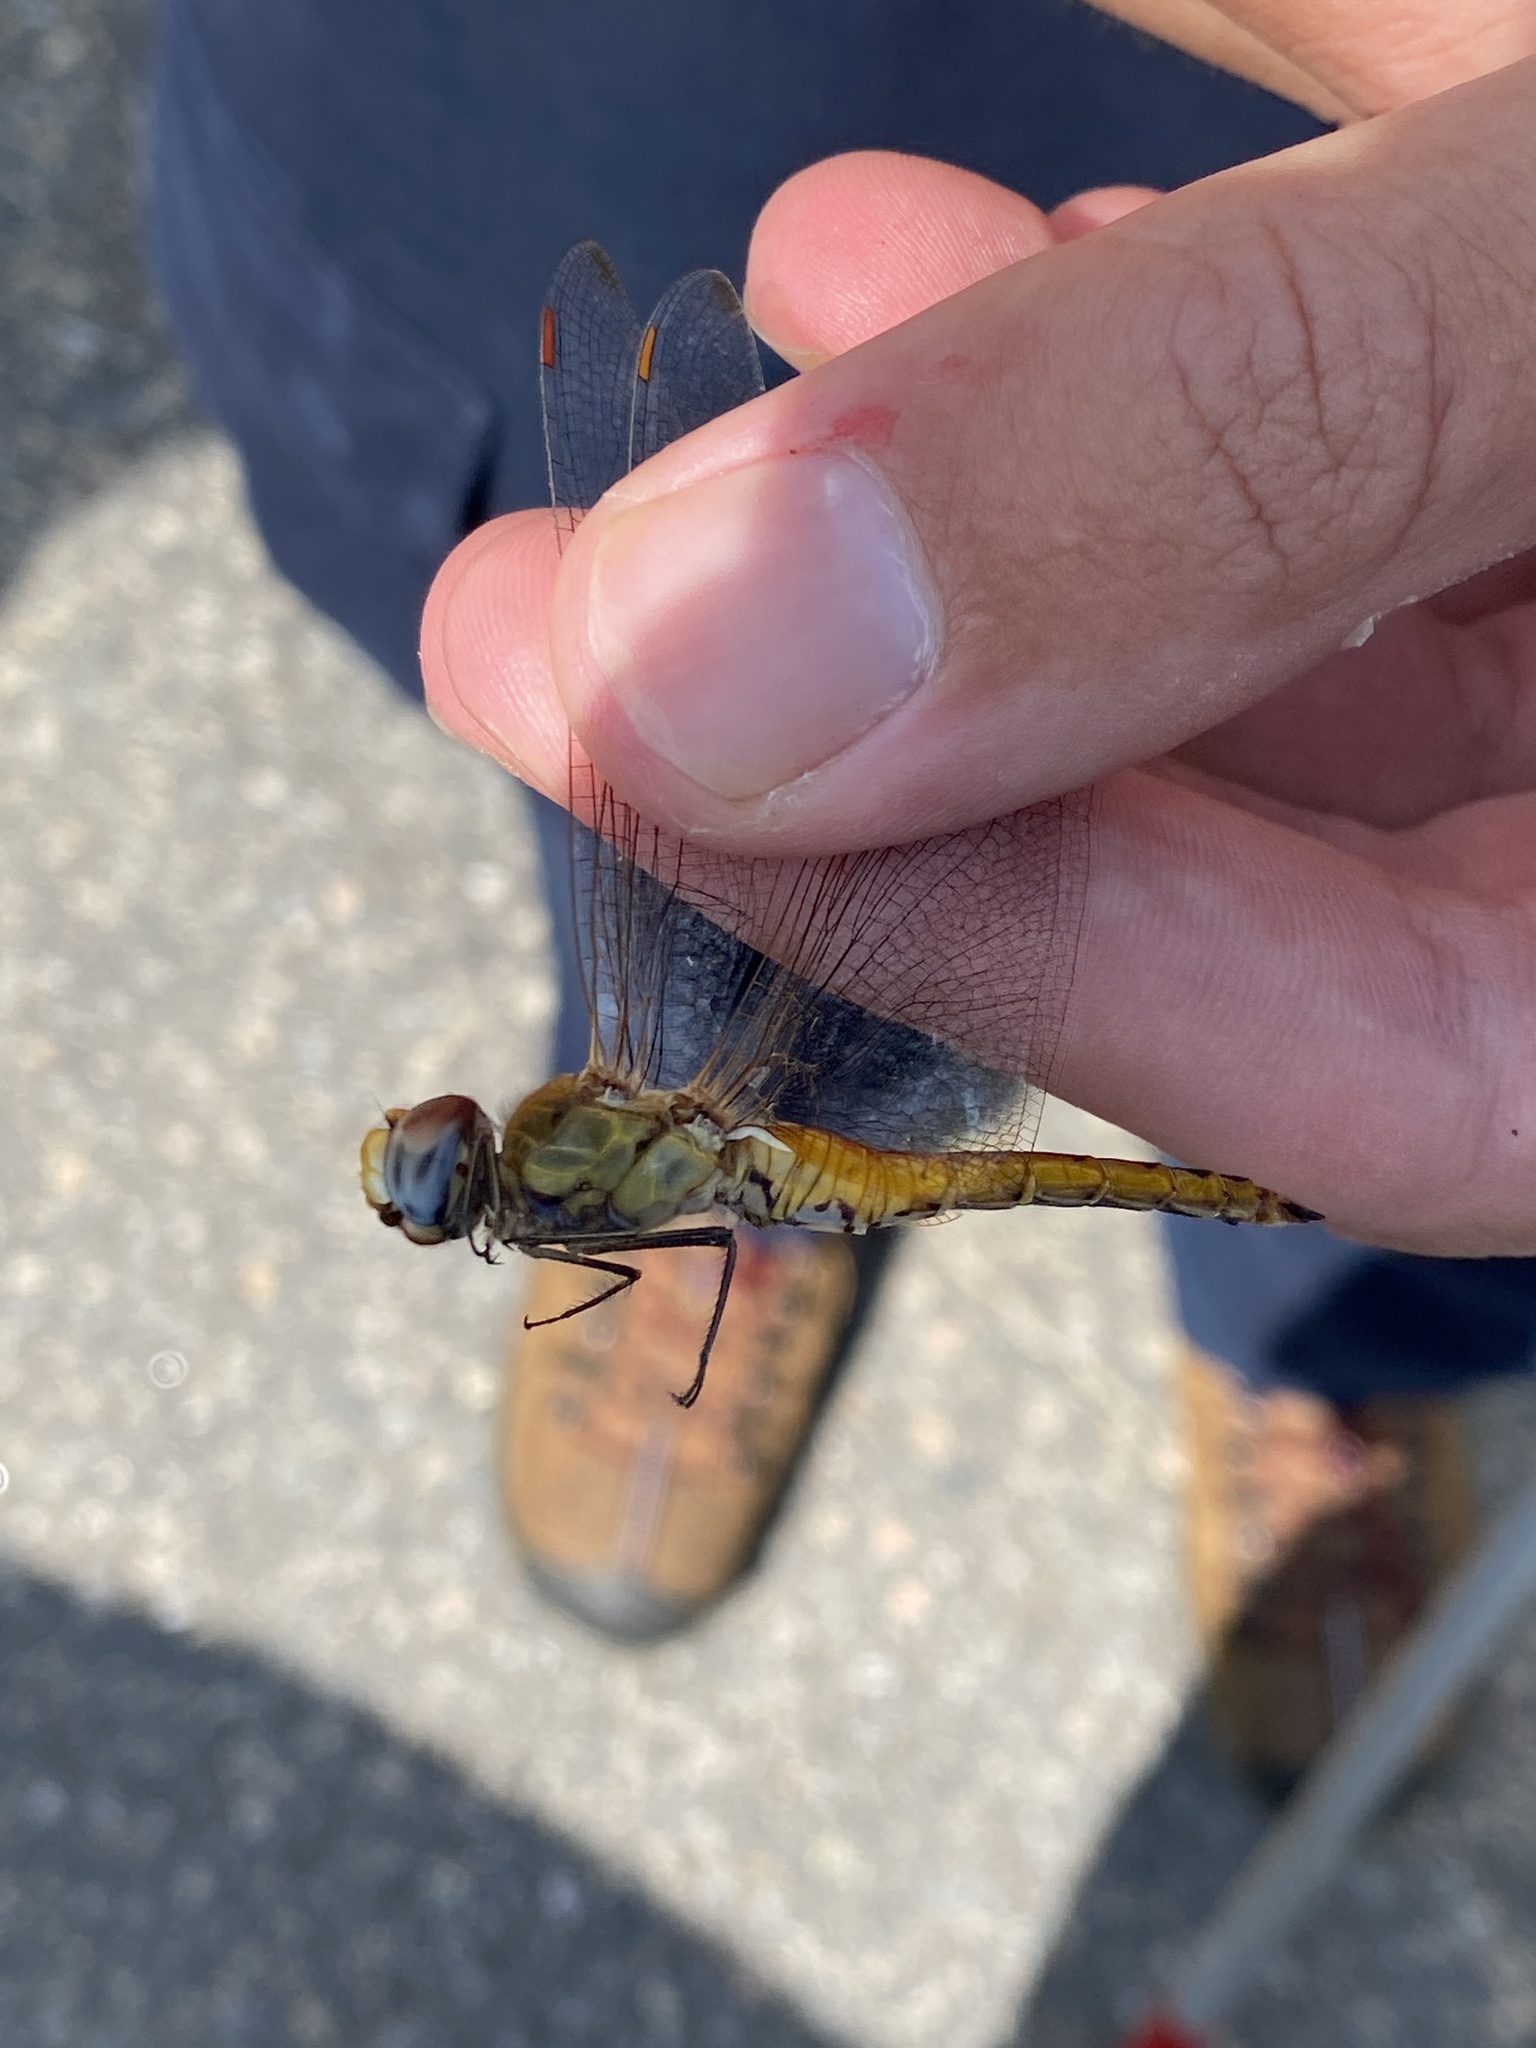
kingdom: Animalia
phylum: Arthropoda
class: Insecta
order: Odonata
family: Libellulidae
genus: Pantala
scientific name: Pantala flavescens
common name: Wandering glider
